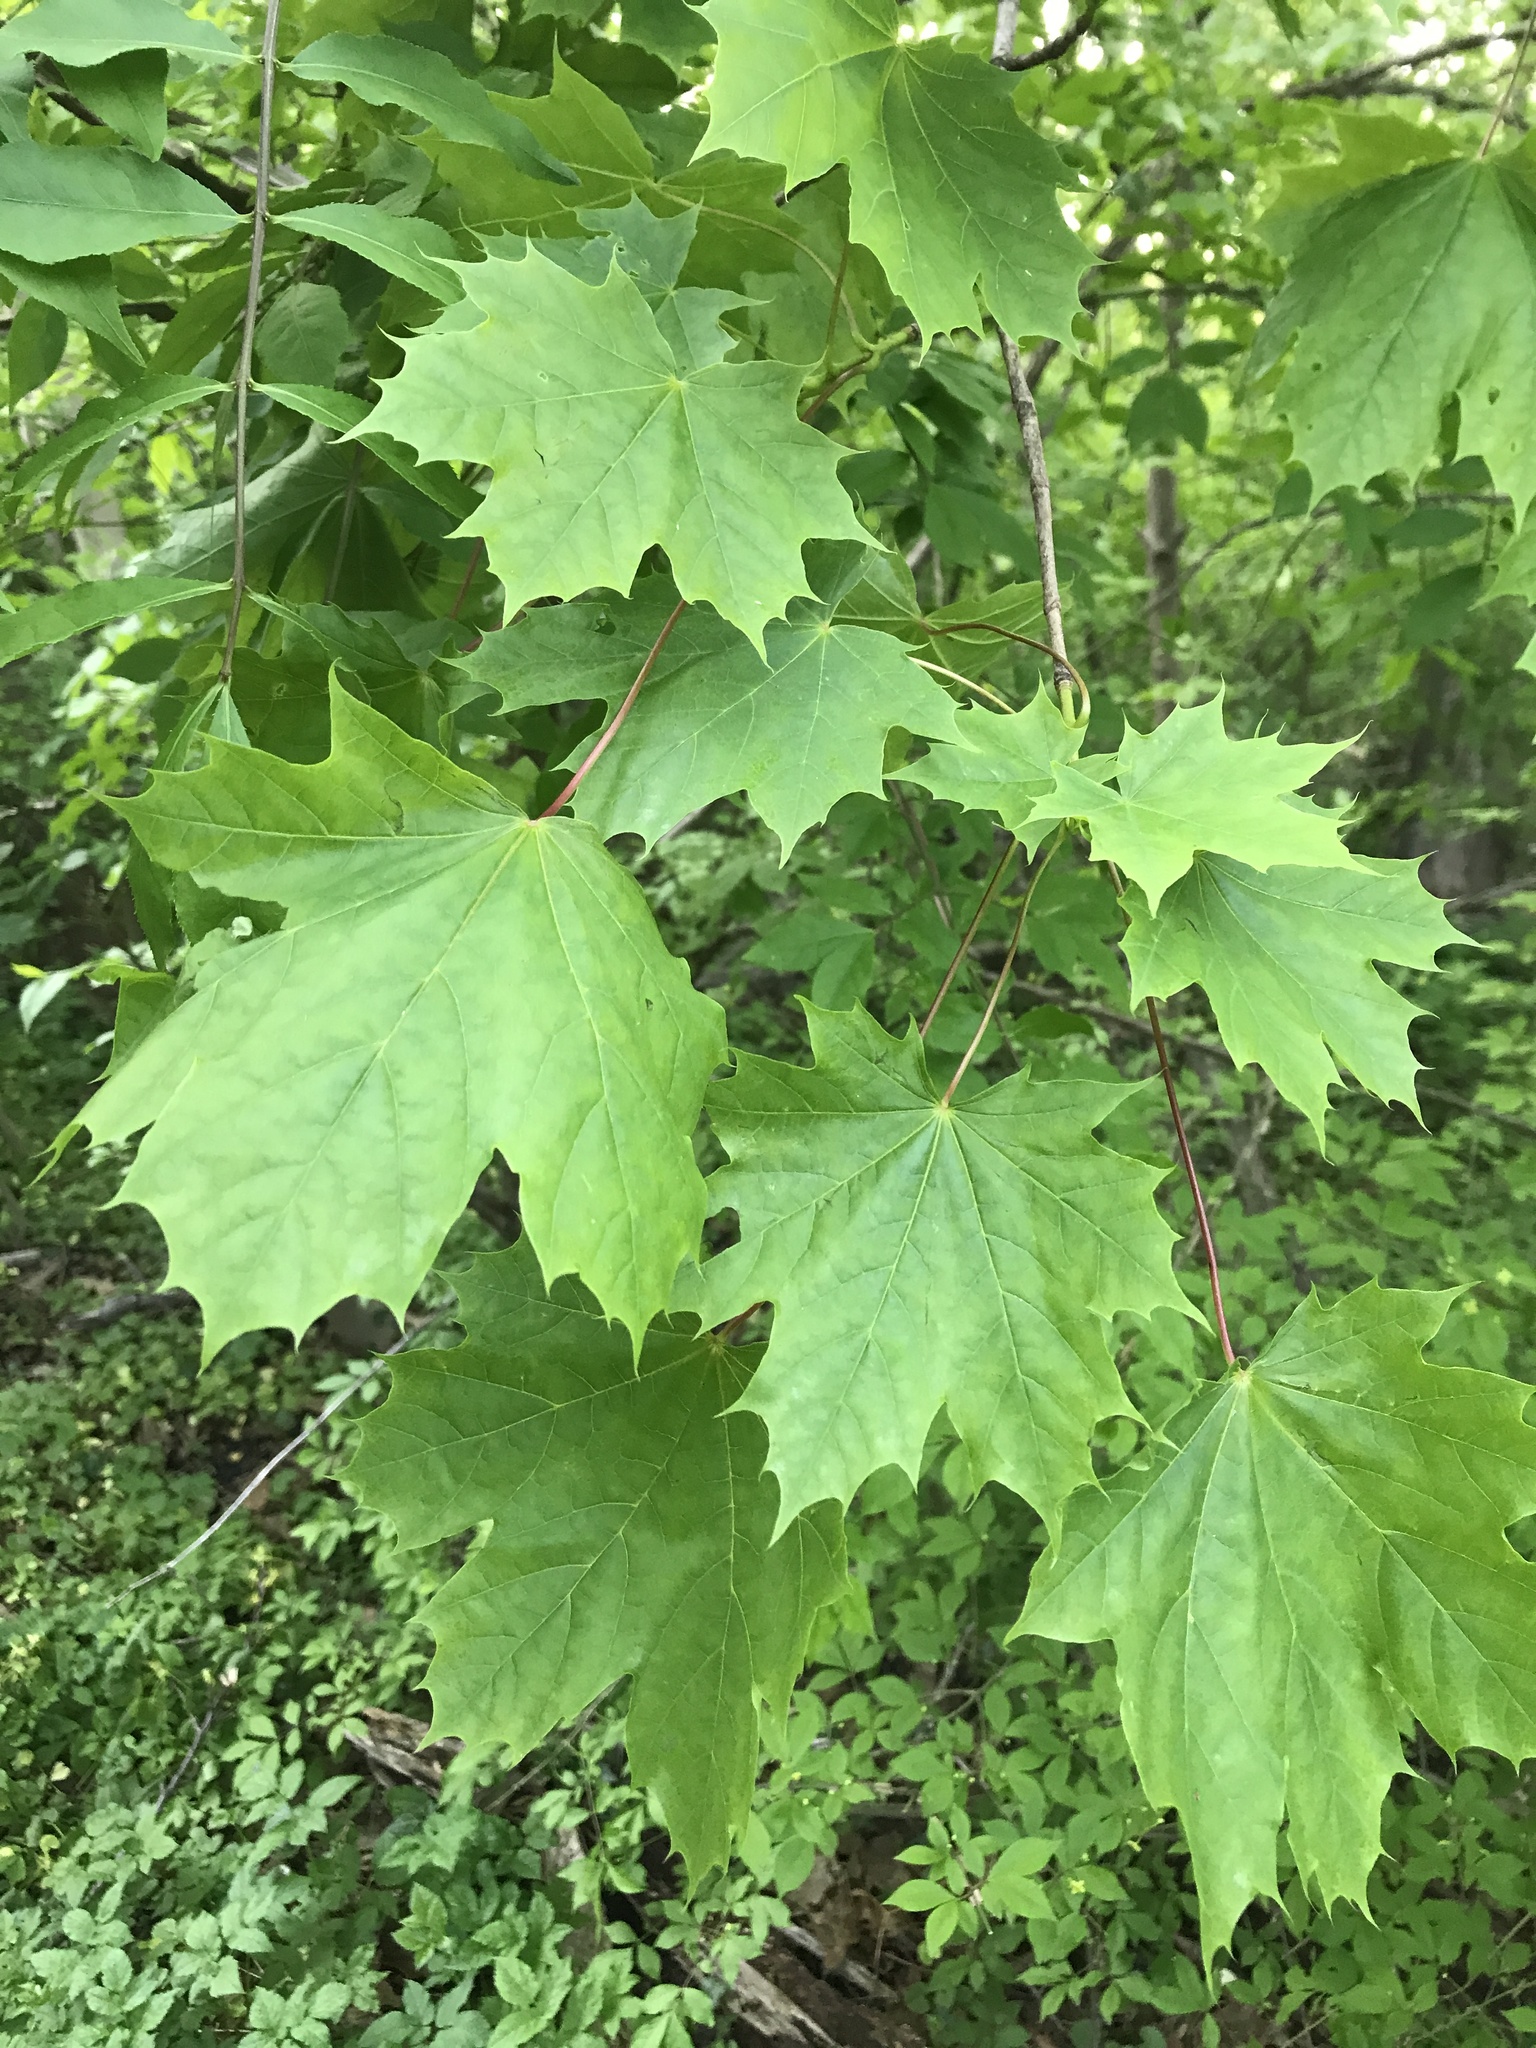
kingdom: Plantae
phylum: Tracheophyta
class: Magnoliopsida
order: Sapindales
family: Sapindaceae
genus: Acer
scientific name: Acer platanoides
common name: Norway maple
